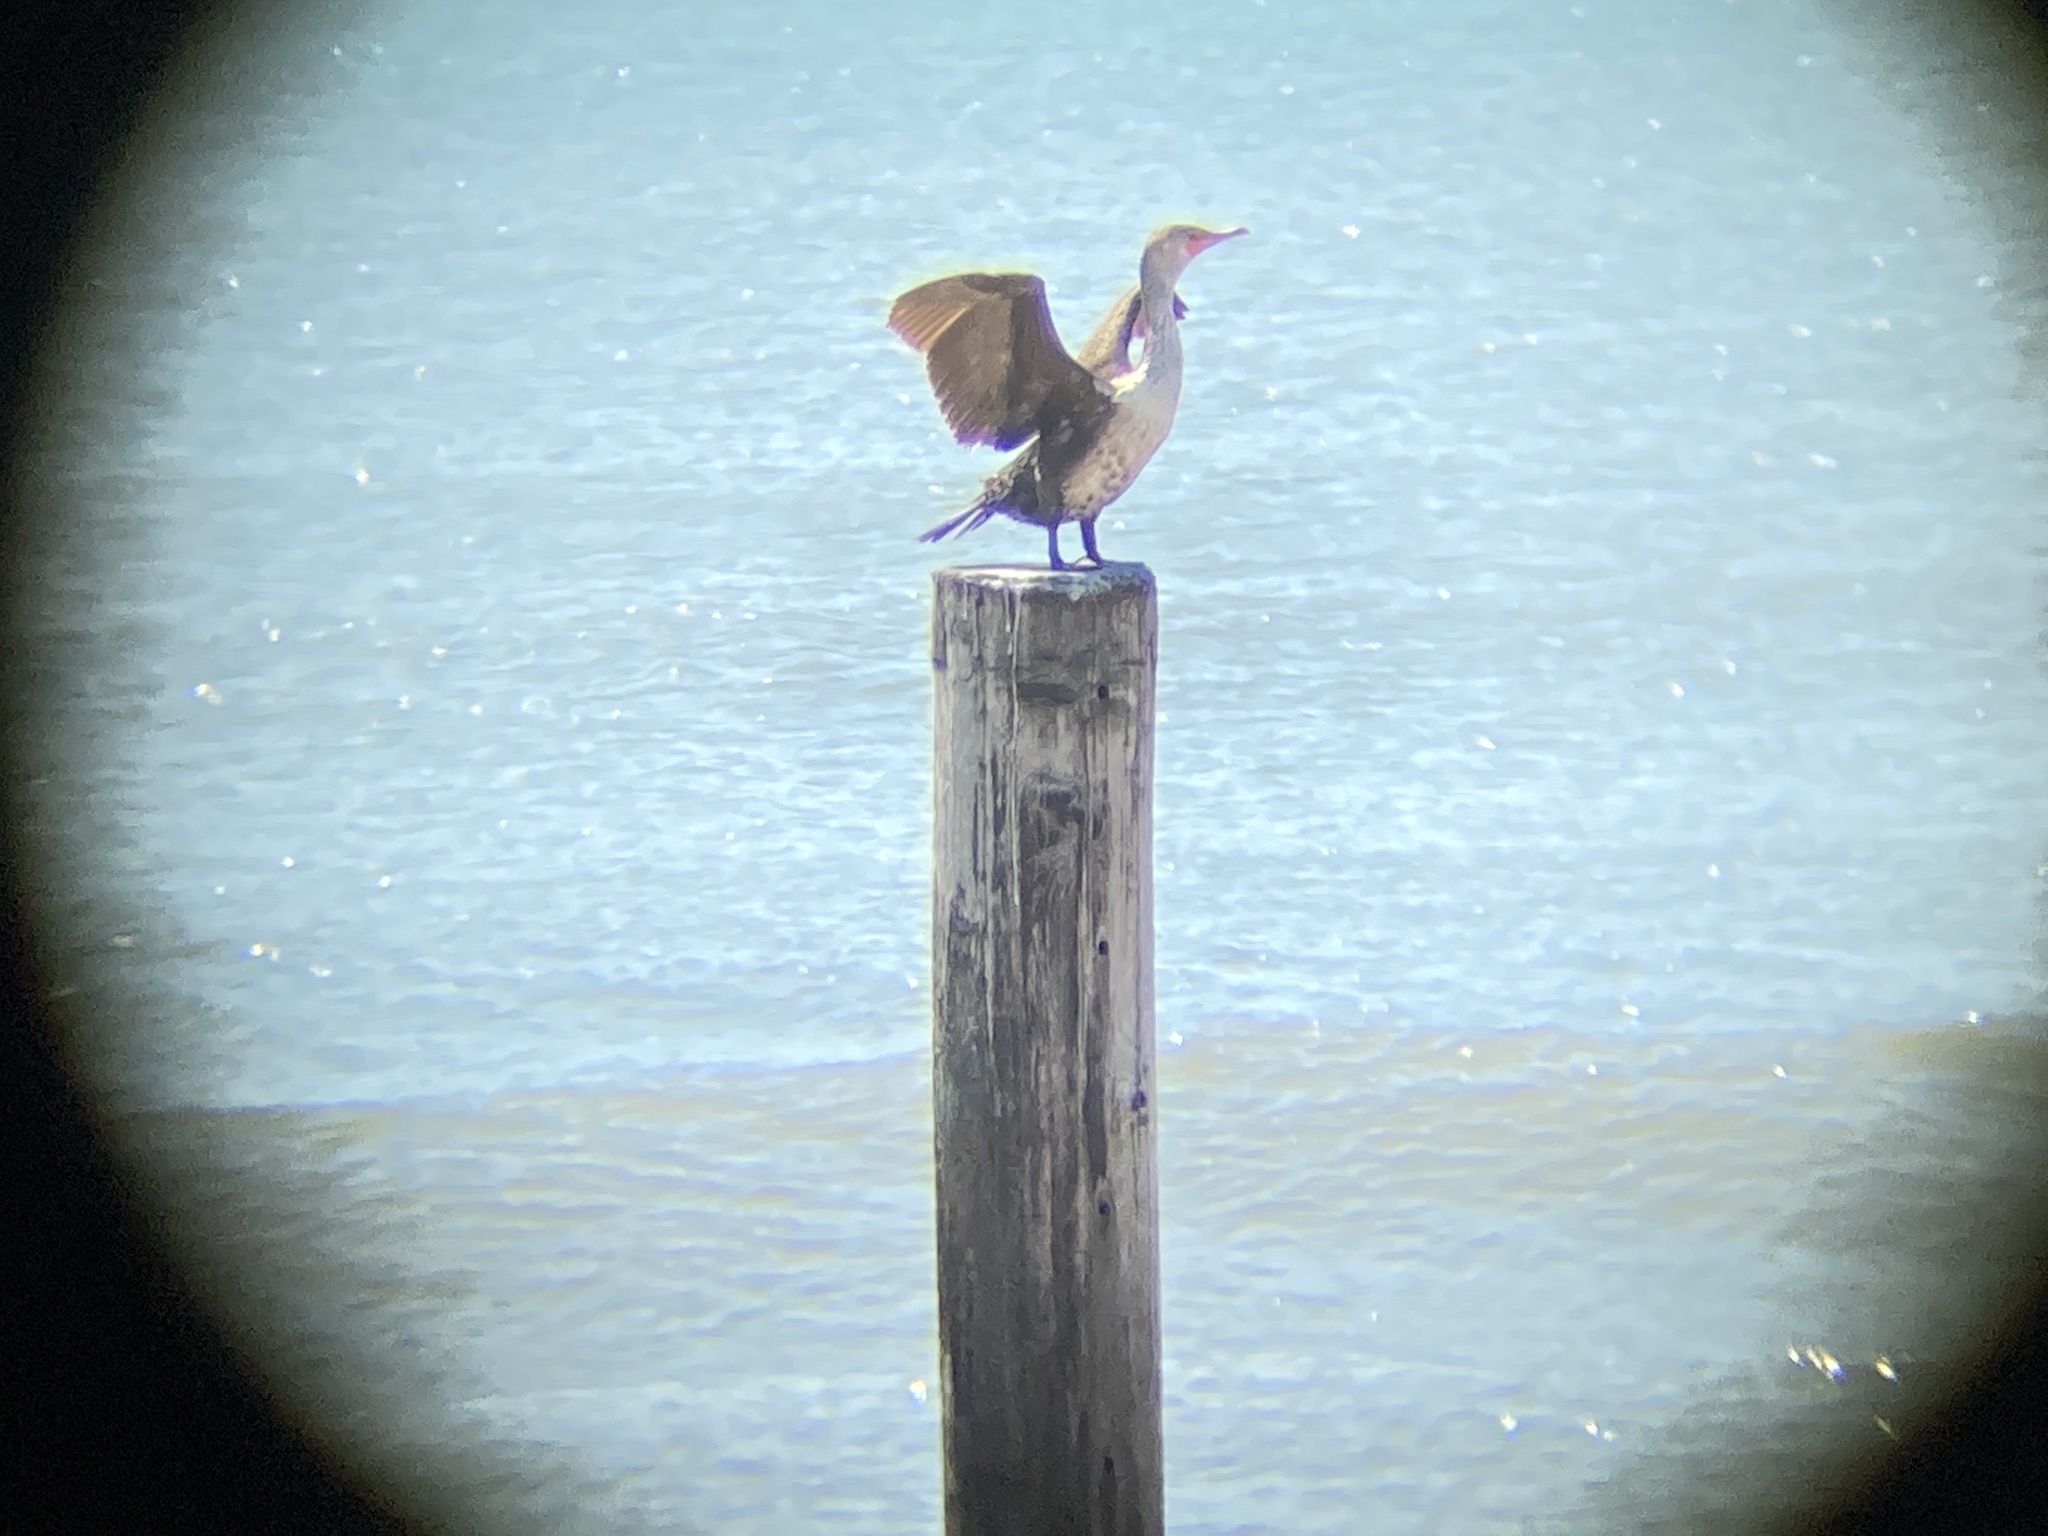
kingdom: Animalia
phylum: Chordata
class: Aves
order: Suliformes
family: Phalacrocoracidae
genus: Phalacrocorax
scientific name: Phalacrocorax auritus
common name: Double-crested cormorant
